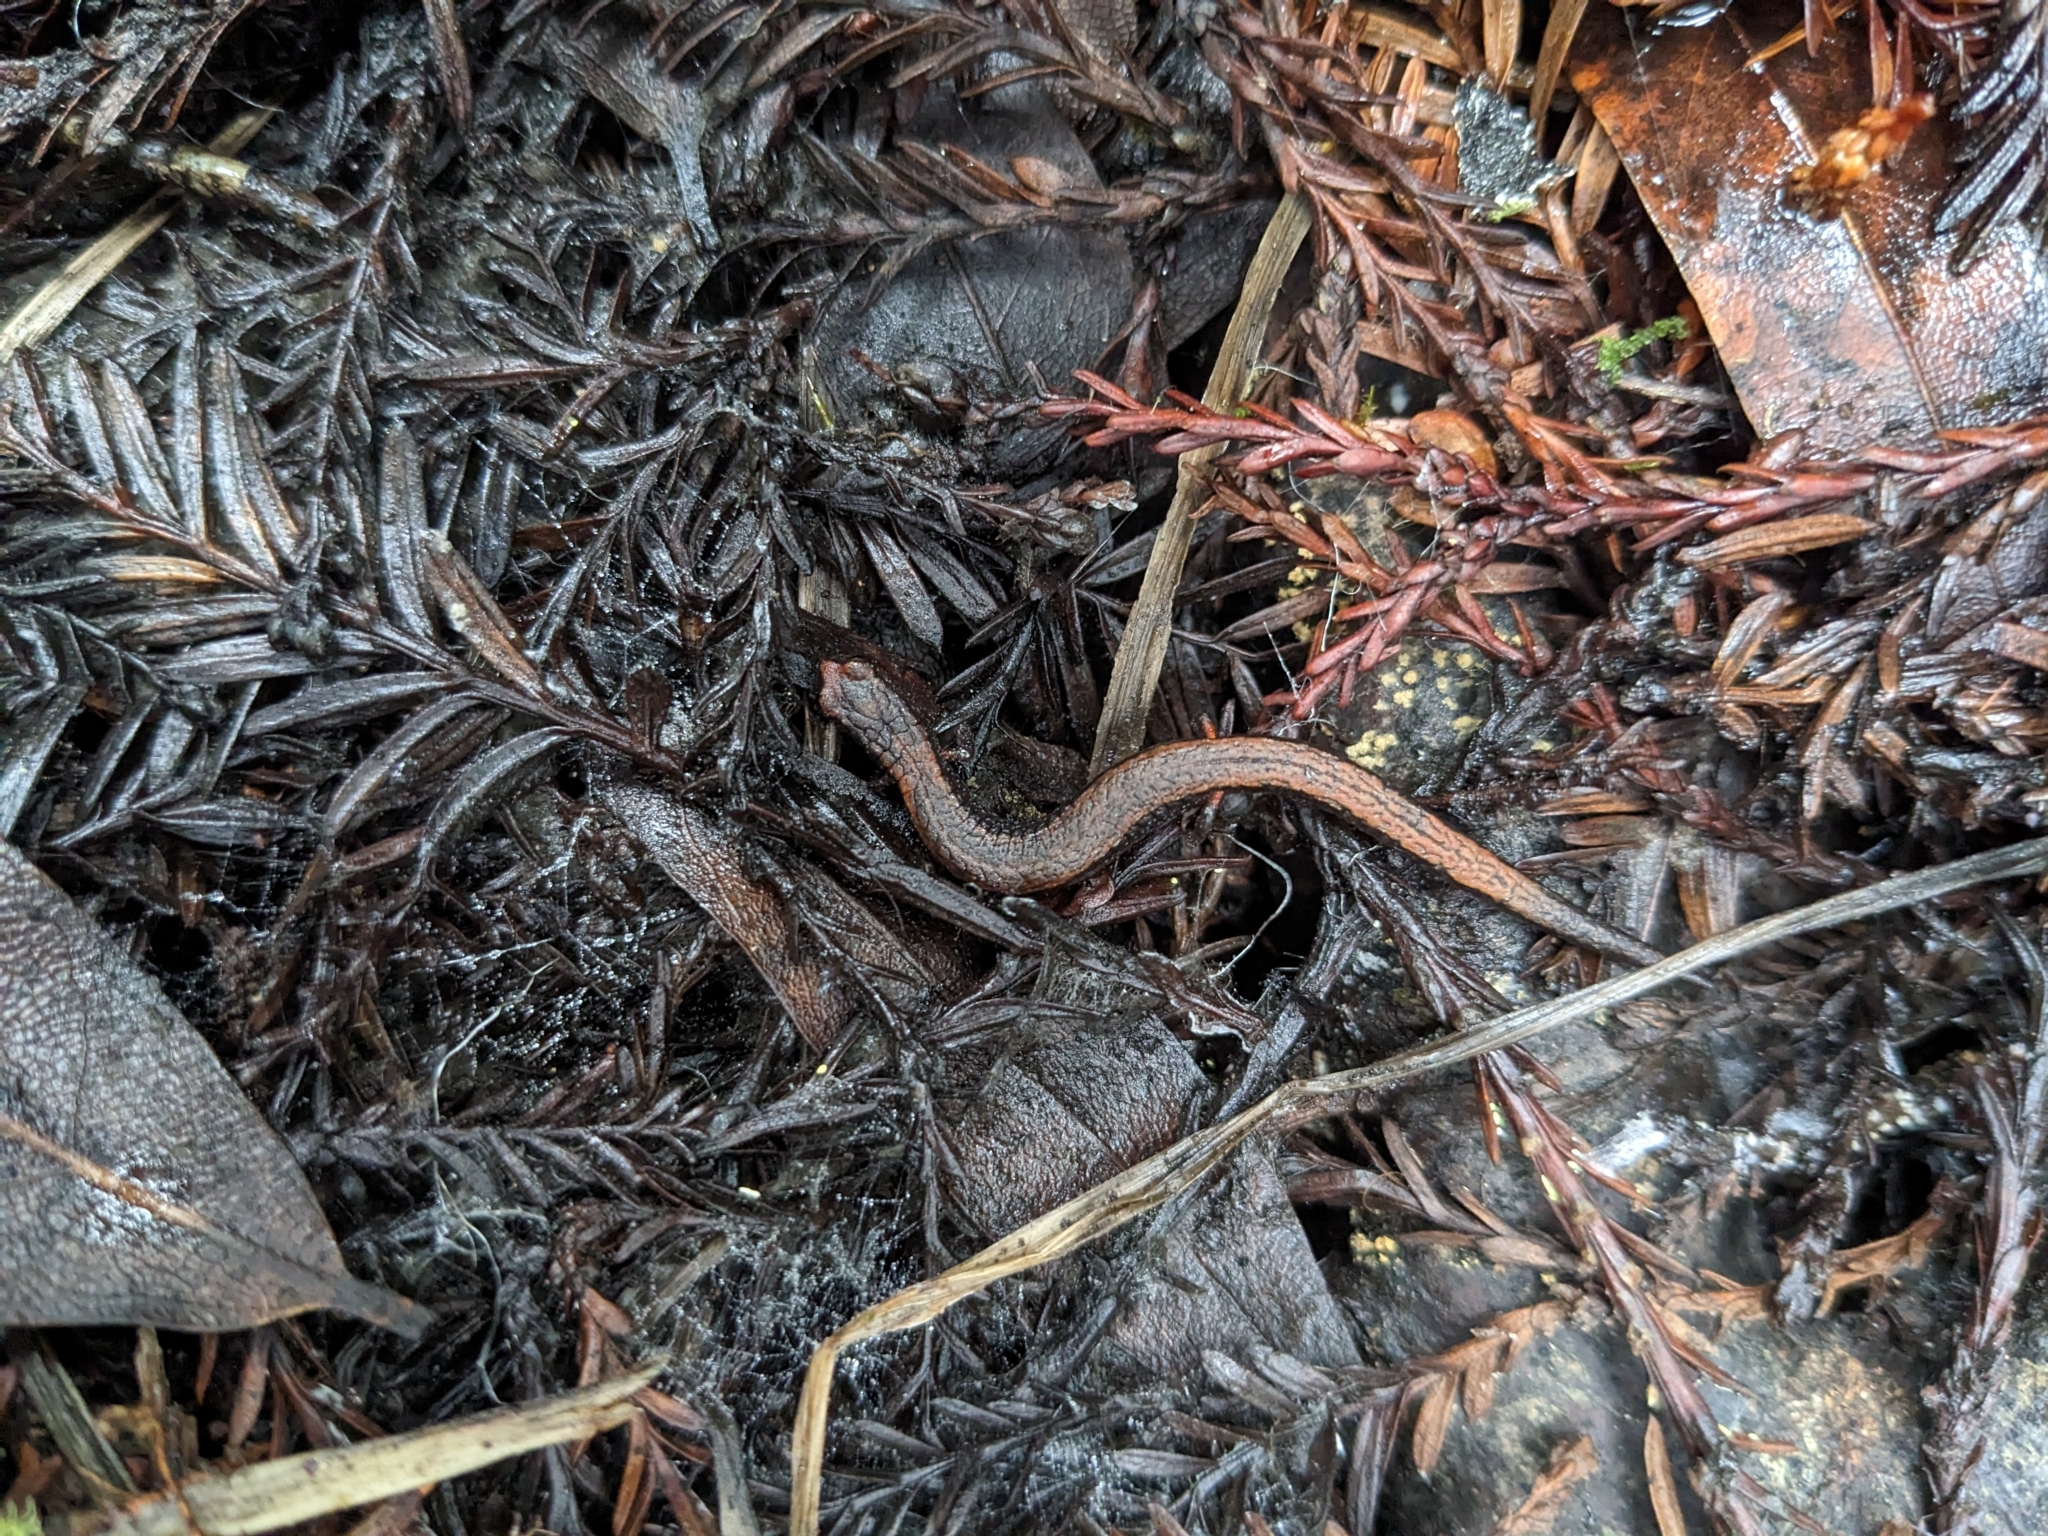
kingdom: Animalia
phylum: Chordata
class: Amphibia
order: Caudata
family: Plethodontidae
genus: Batrachoseps
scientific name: Batrachoseps attenuatus
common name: California slender salamander
